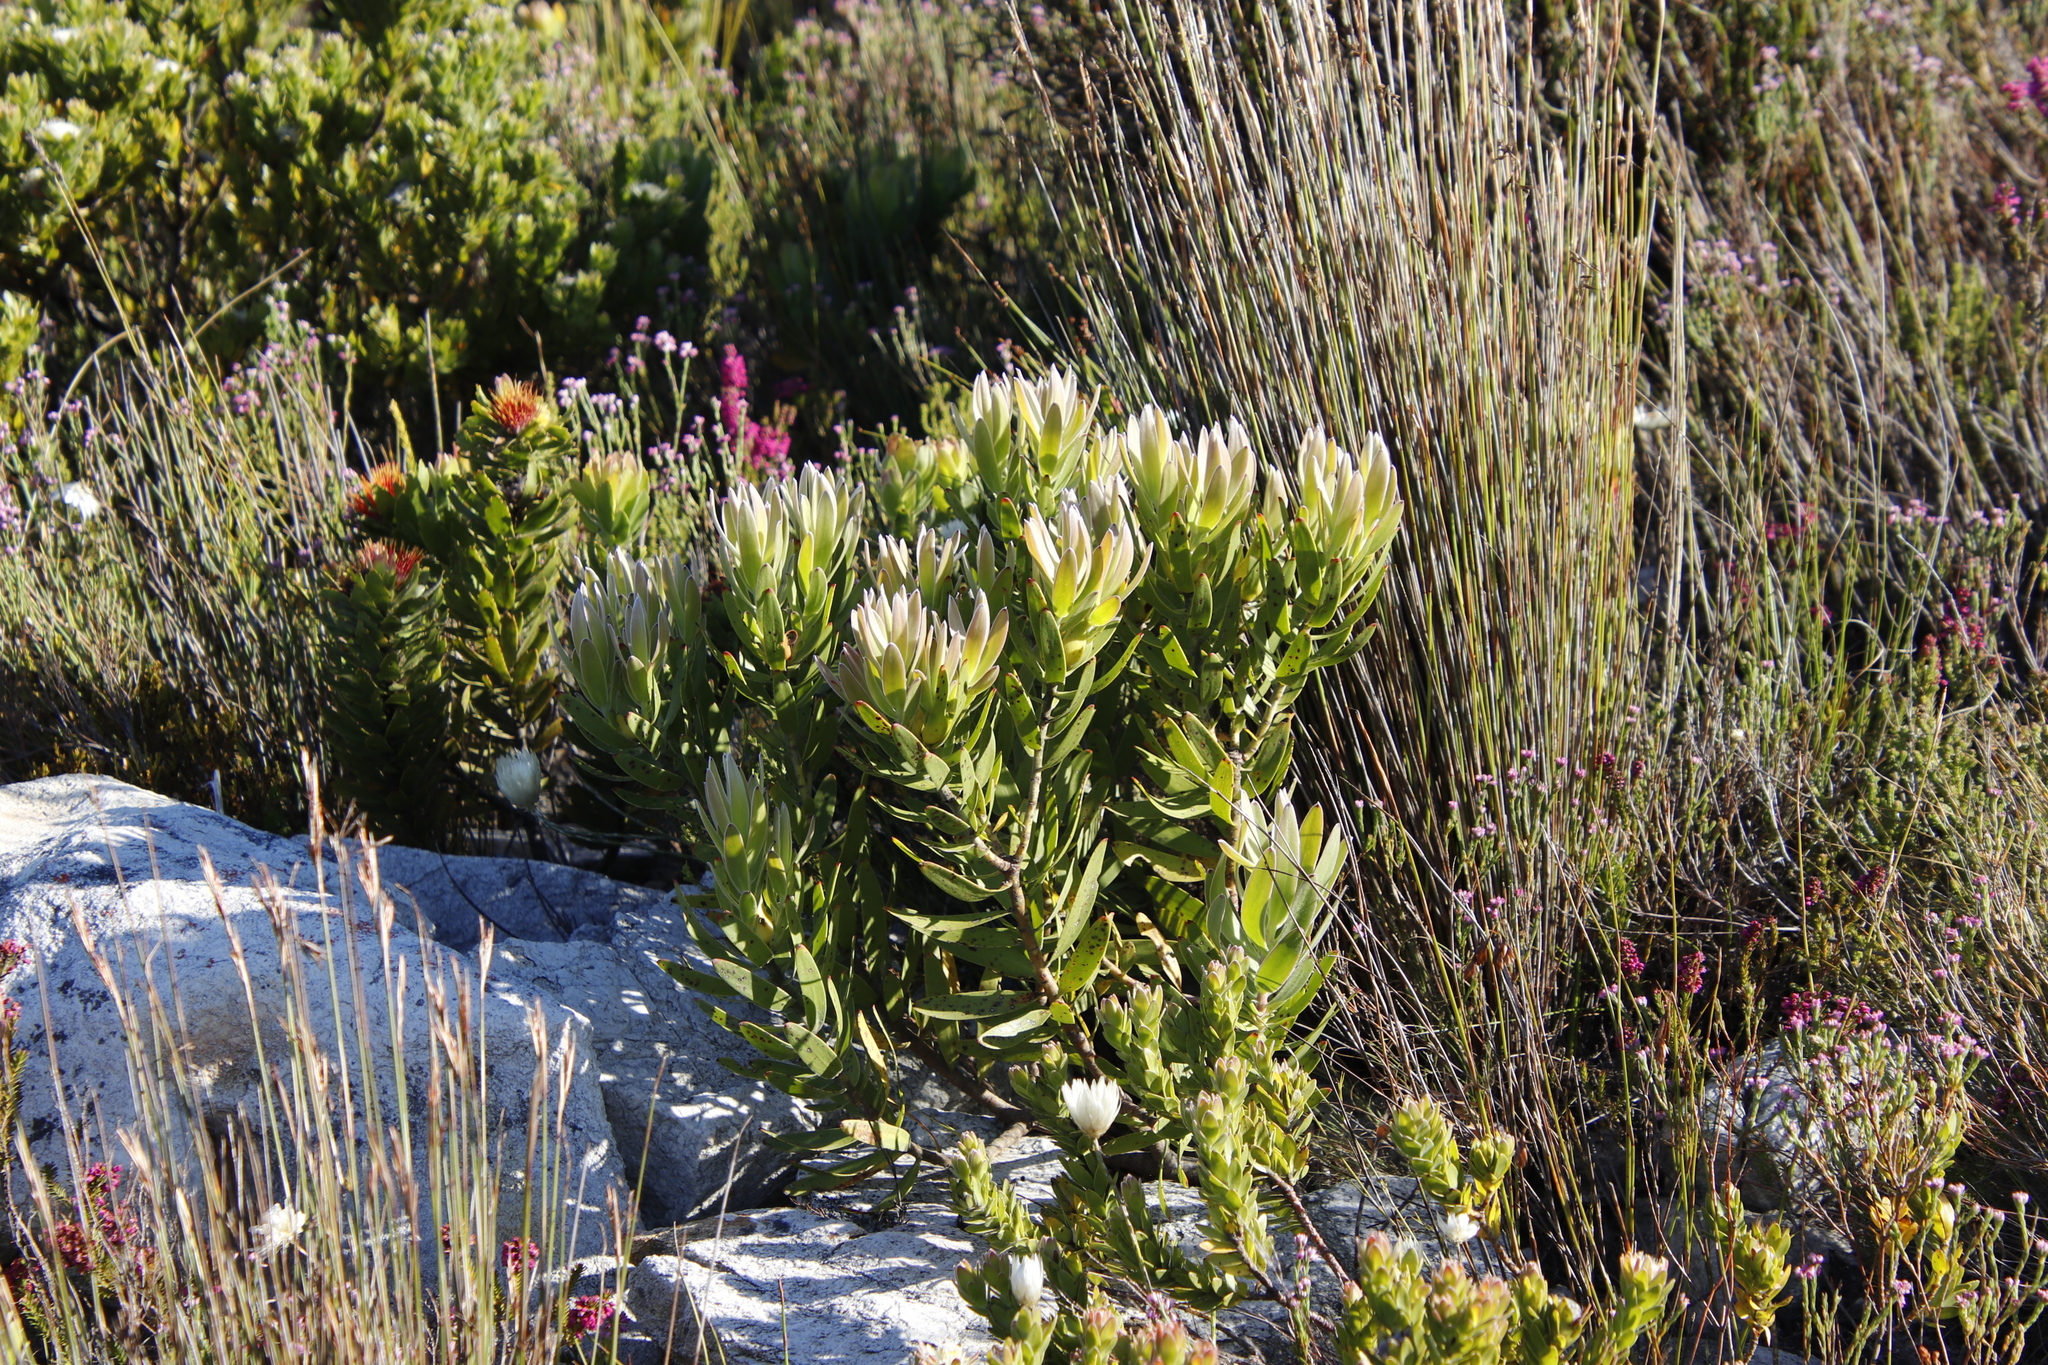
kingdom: Plantae
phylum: Tracheophyta
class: Magnoliopsida
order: Proteales
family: Proteaceae
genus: Leucadendron
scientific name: Leucadendron laureolum
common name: Golden sunshinebush
